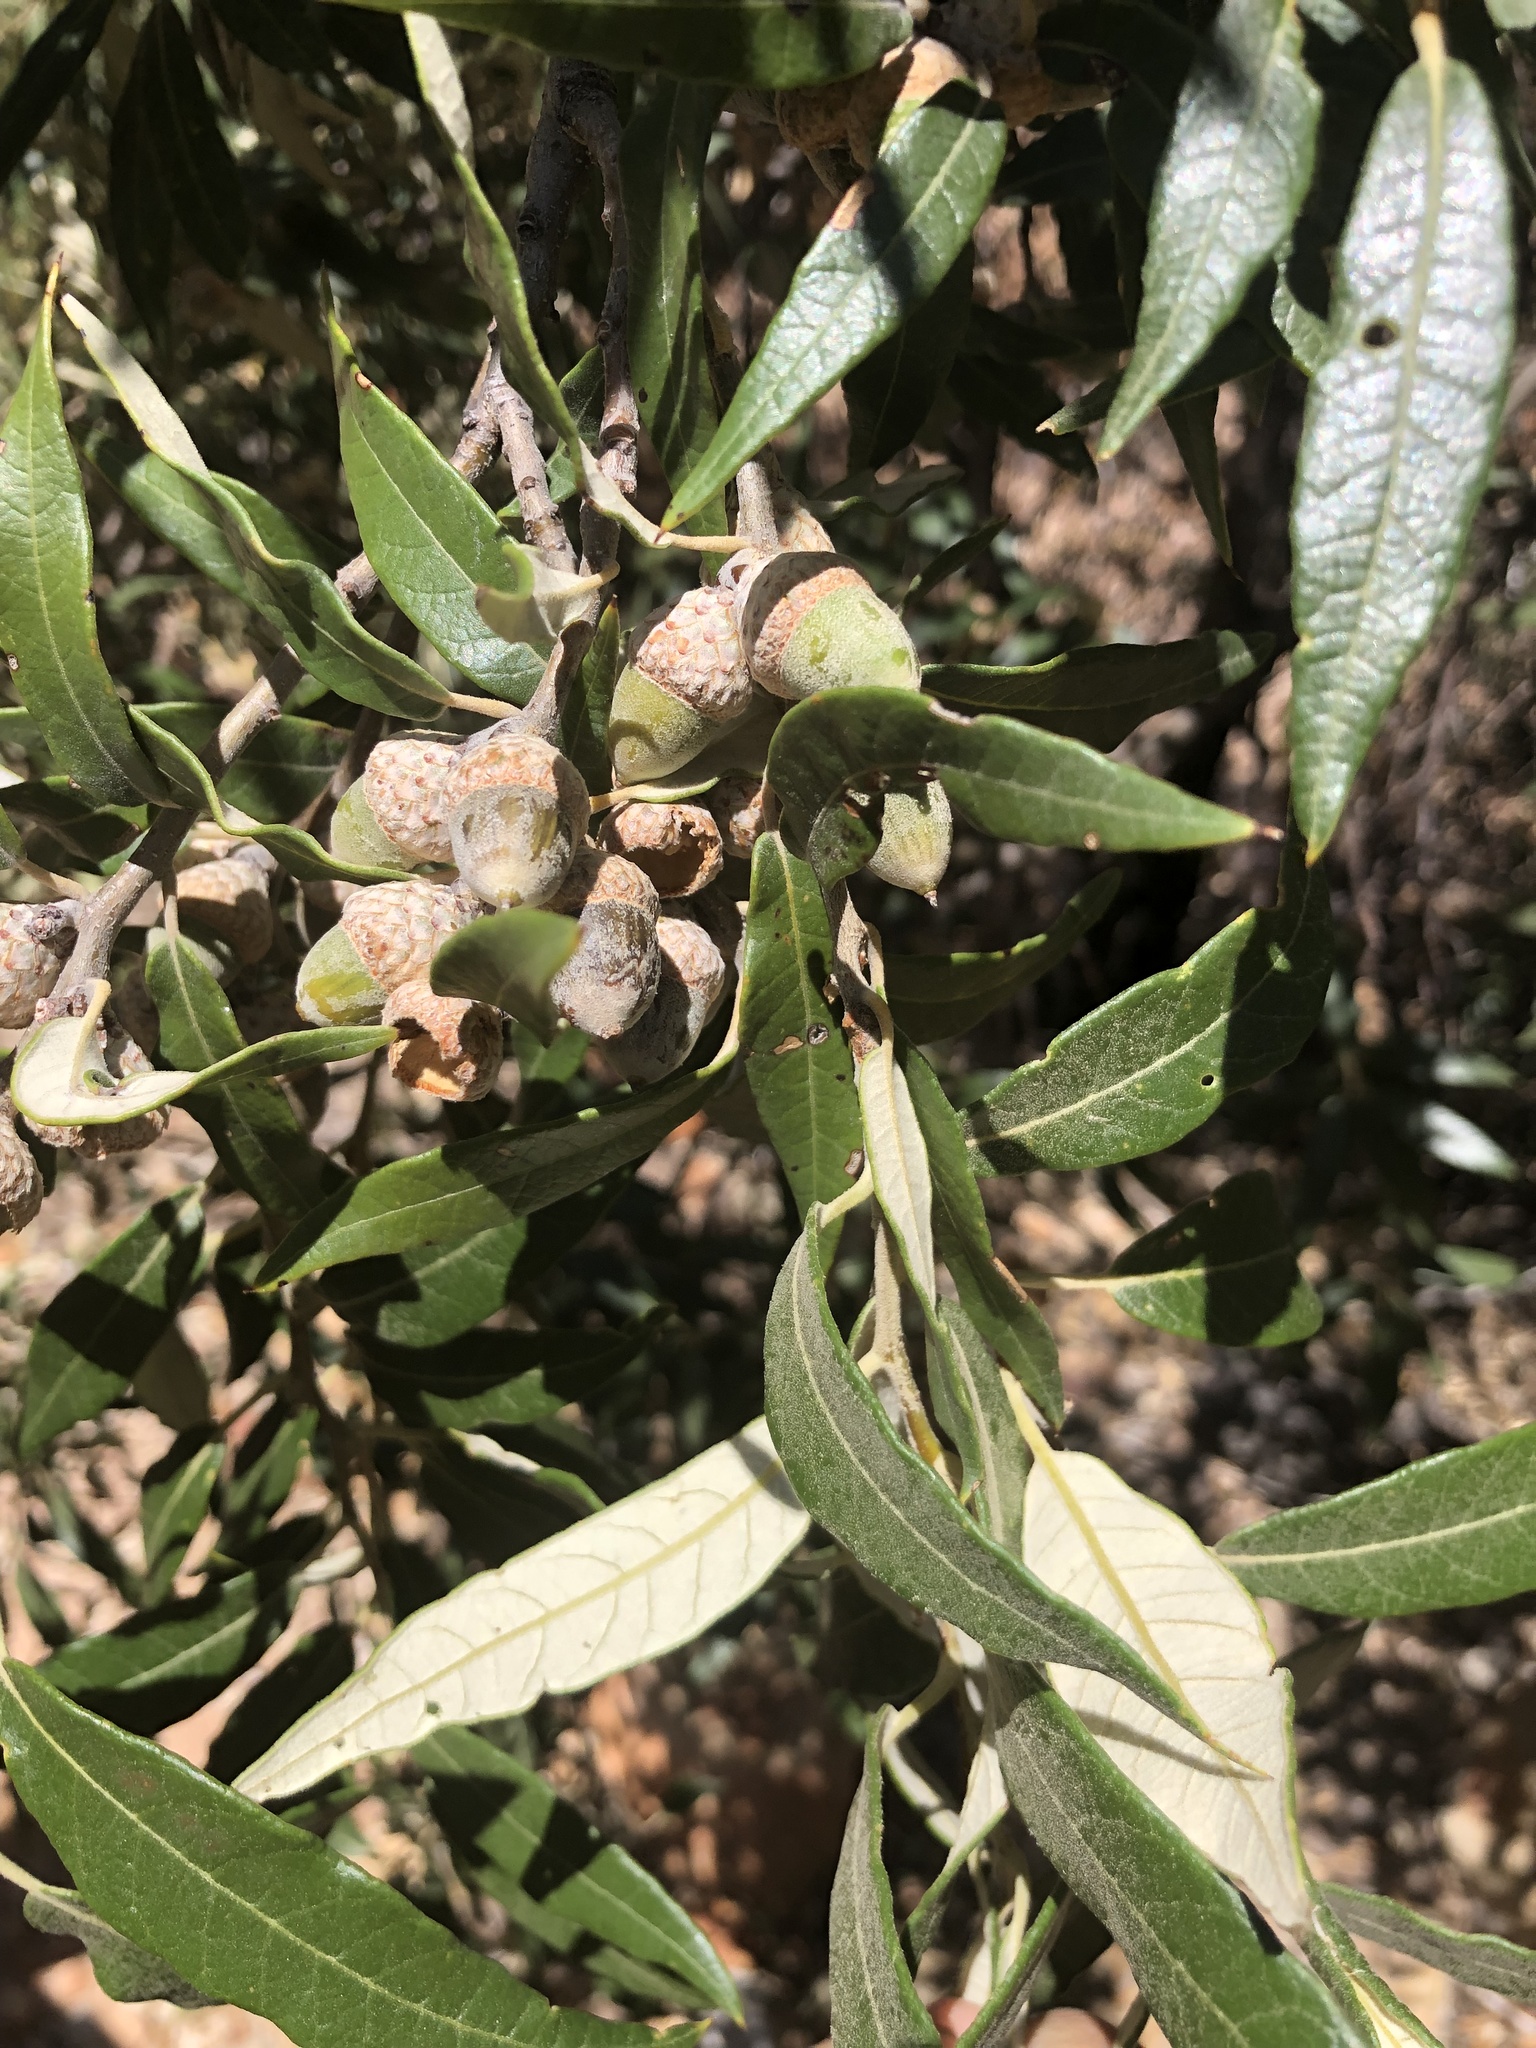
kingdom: Plantae
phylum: Tracheophyta
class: Magnoliopsida
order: Fagales
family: Fagaceae
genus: Quercus
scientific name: Quercus hypoleucoides
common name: Silverleaf oak
